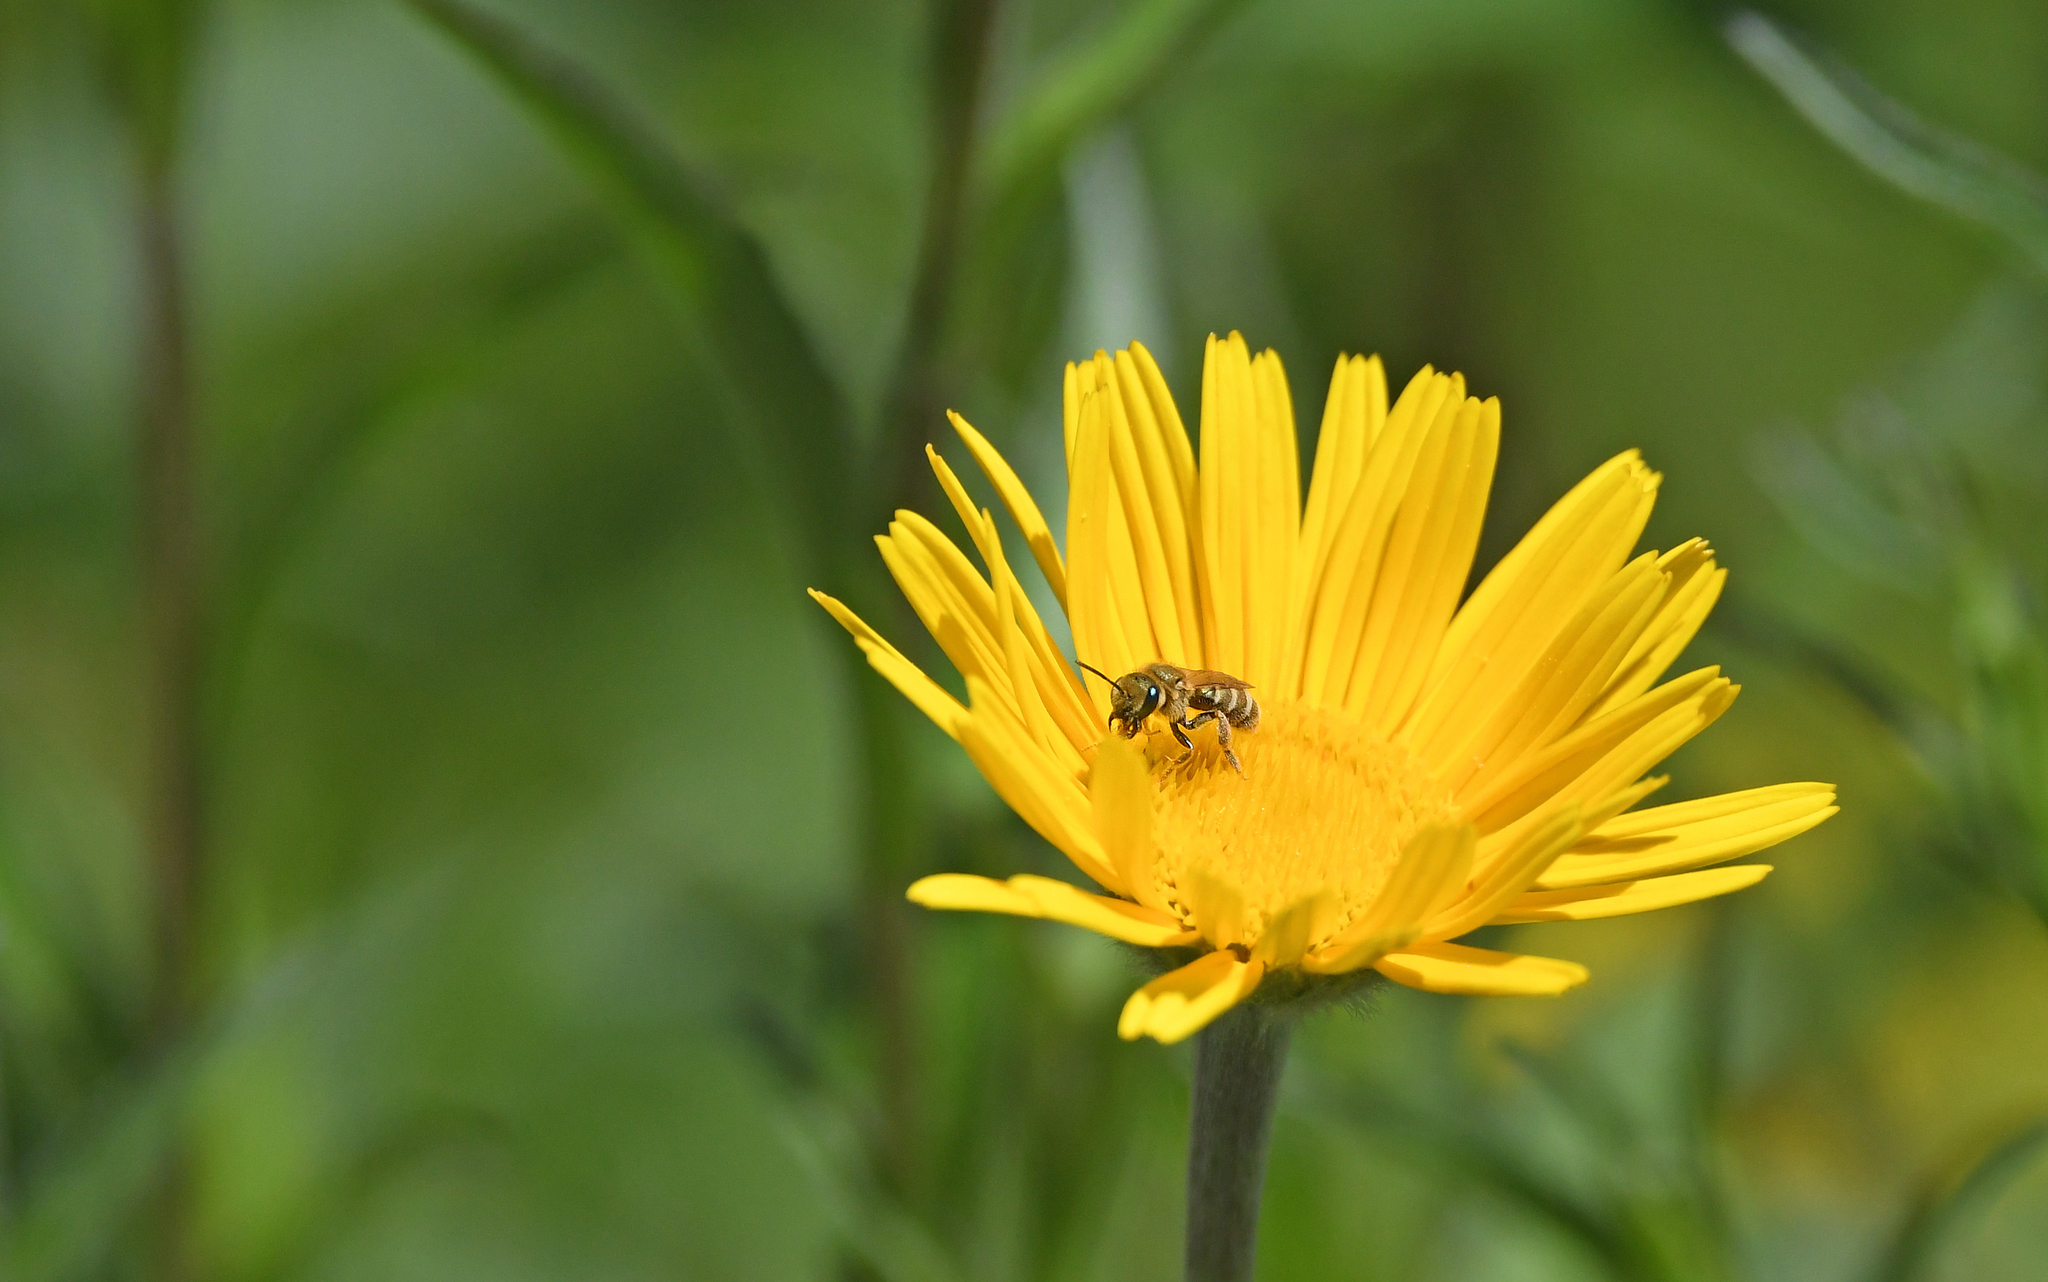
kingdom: Animalia
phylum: Arthropoda
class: Insecta
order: Hymenoptera
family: Halictidae
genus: Halictus
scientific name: Halictus subauratus
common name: Golden furrow bee
